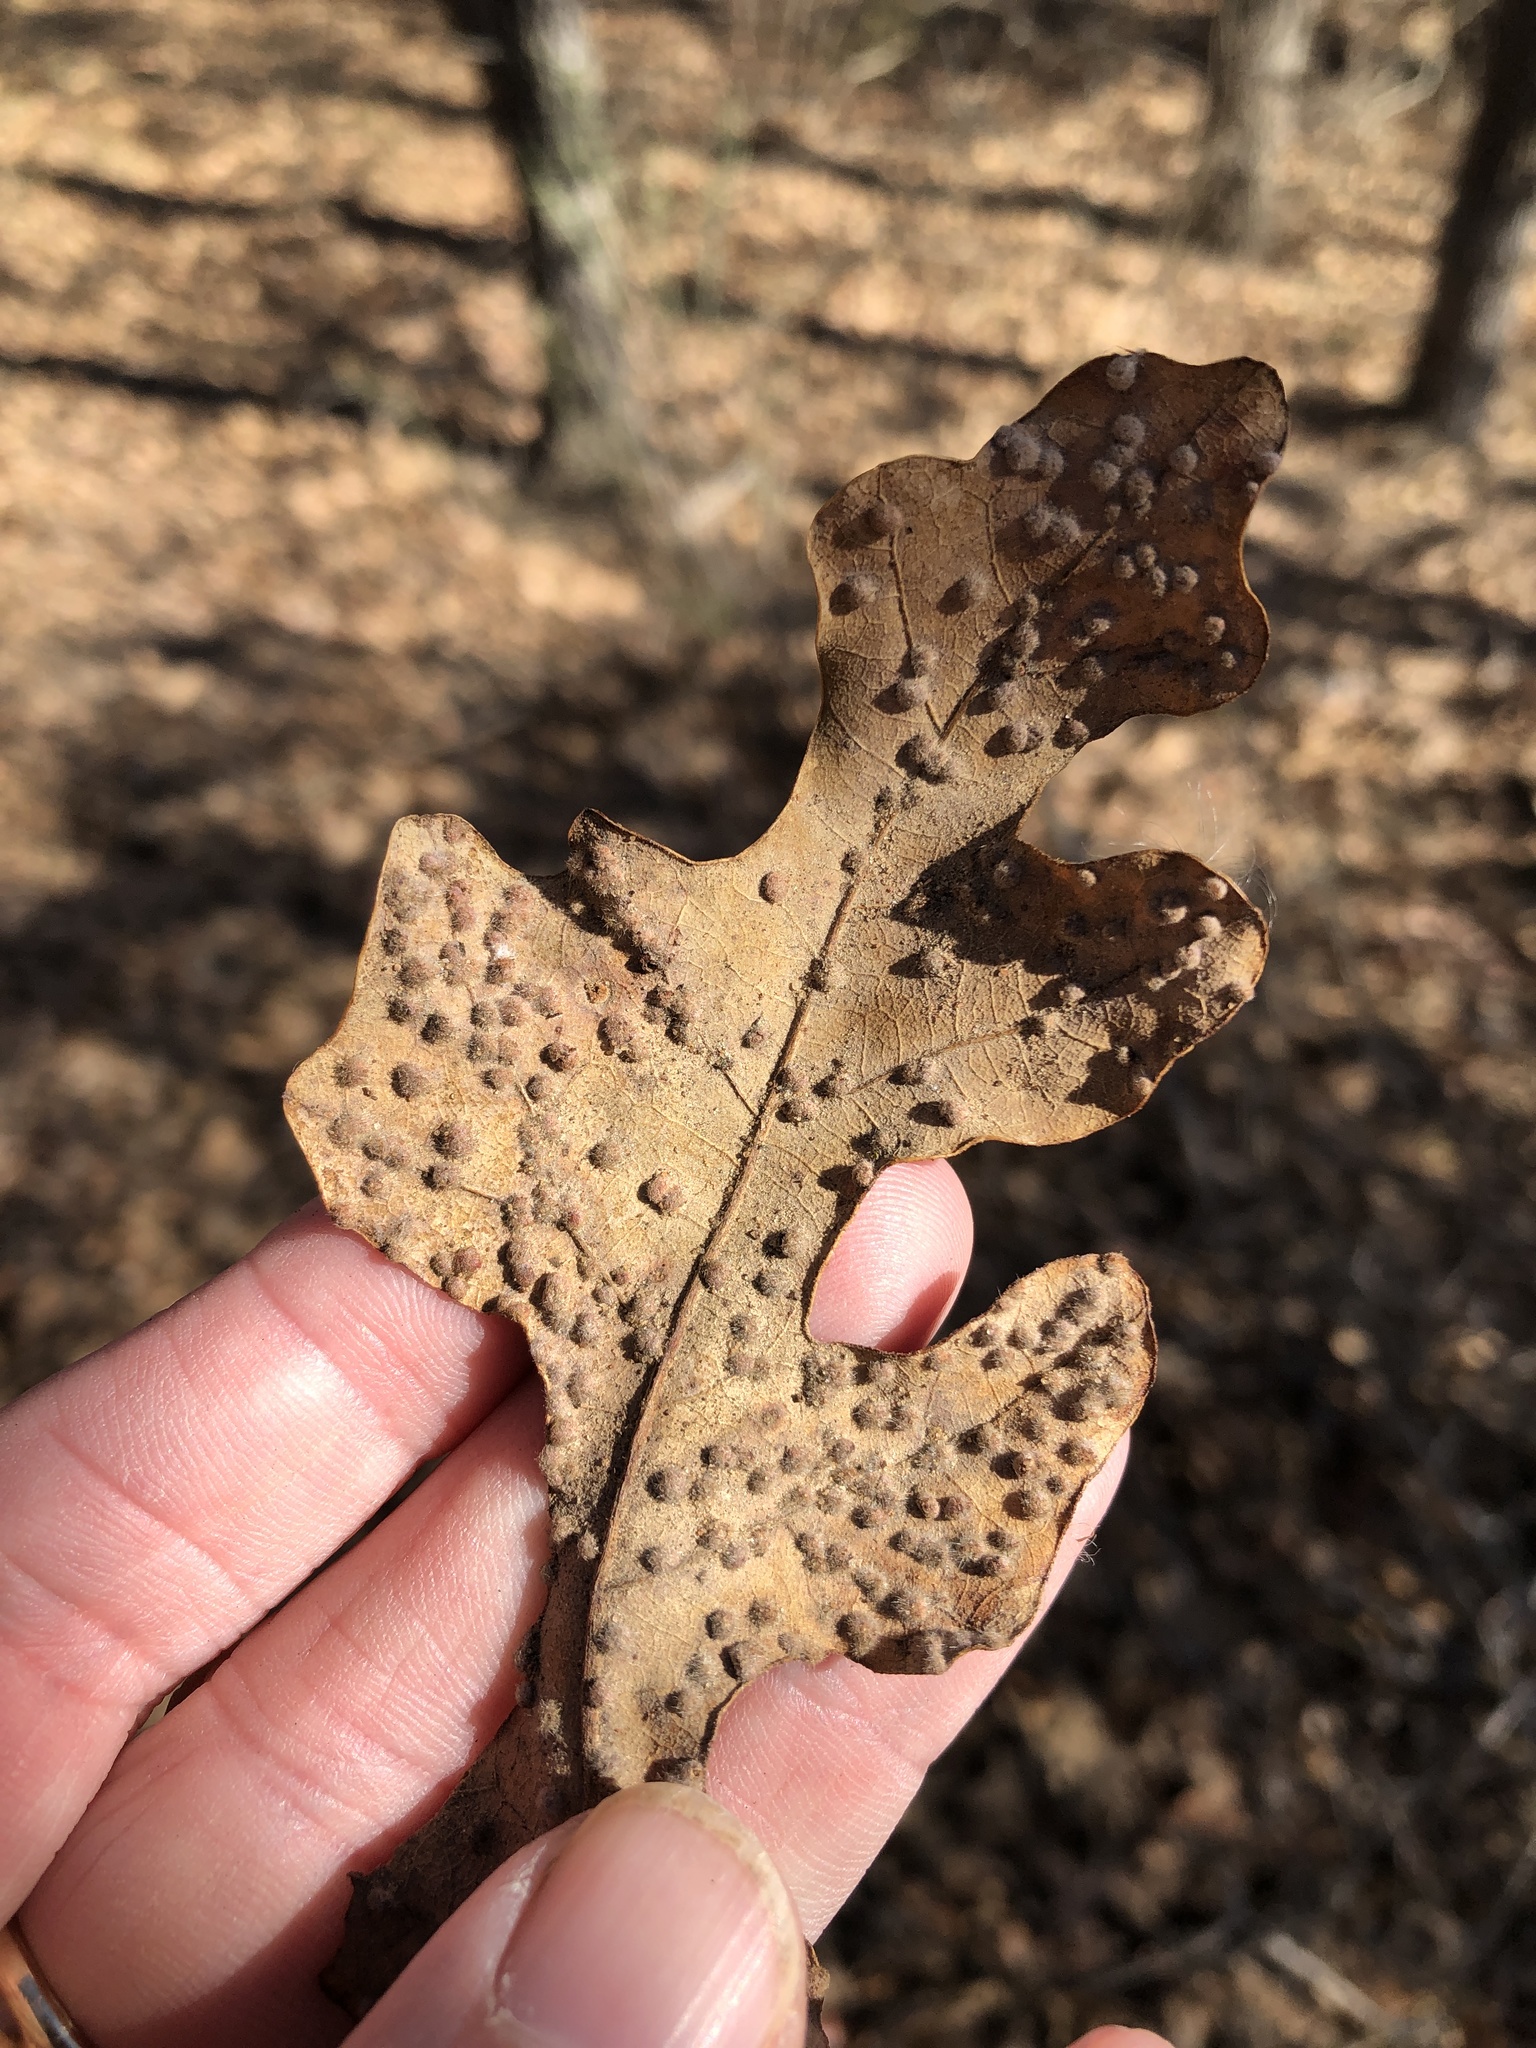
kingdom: Animalia
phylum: Arthropoda
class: Insecta
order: Hymenoptera
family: Cynipidae
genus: Neuroterus
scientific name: Neuroterus quercusverrucarum
